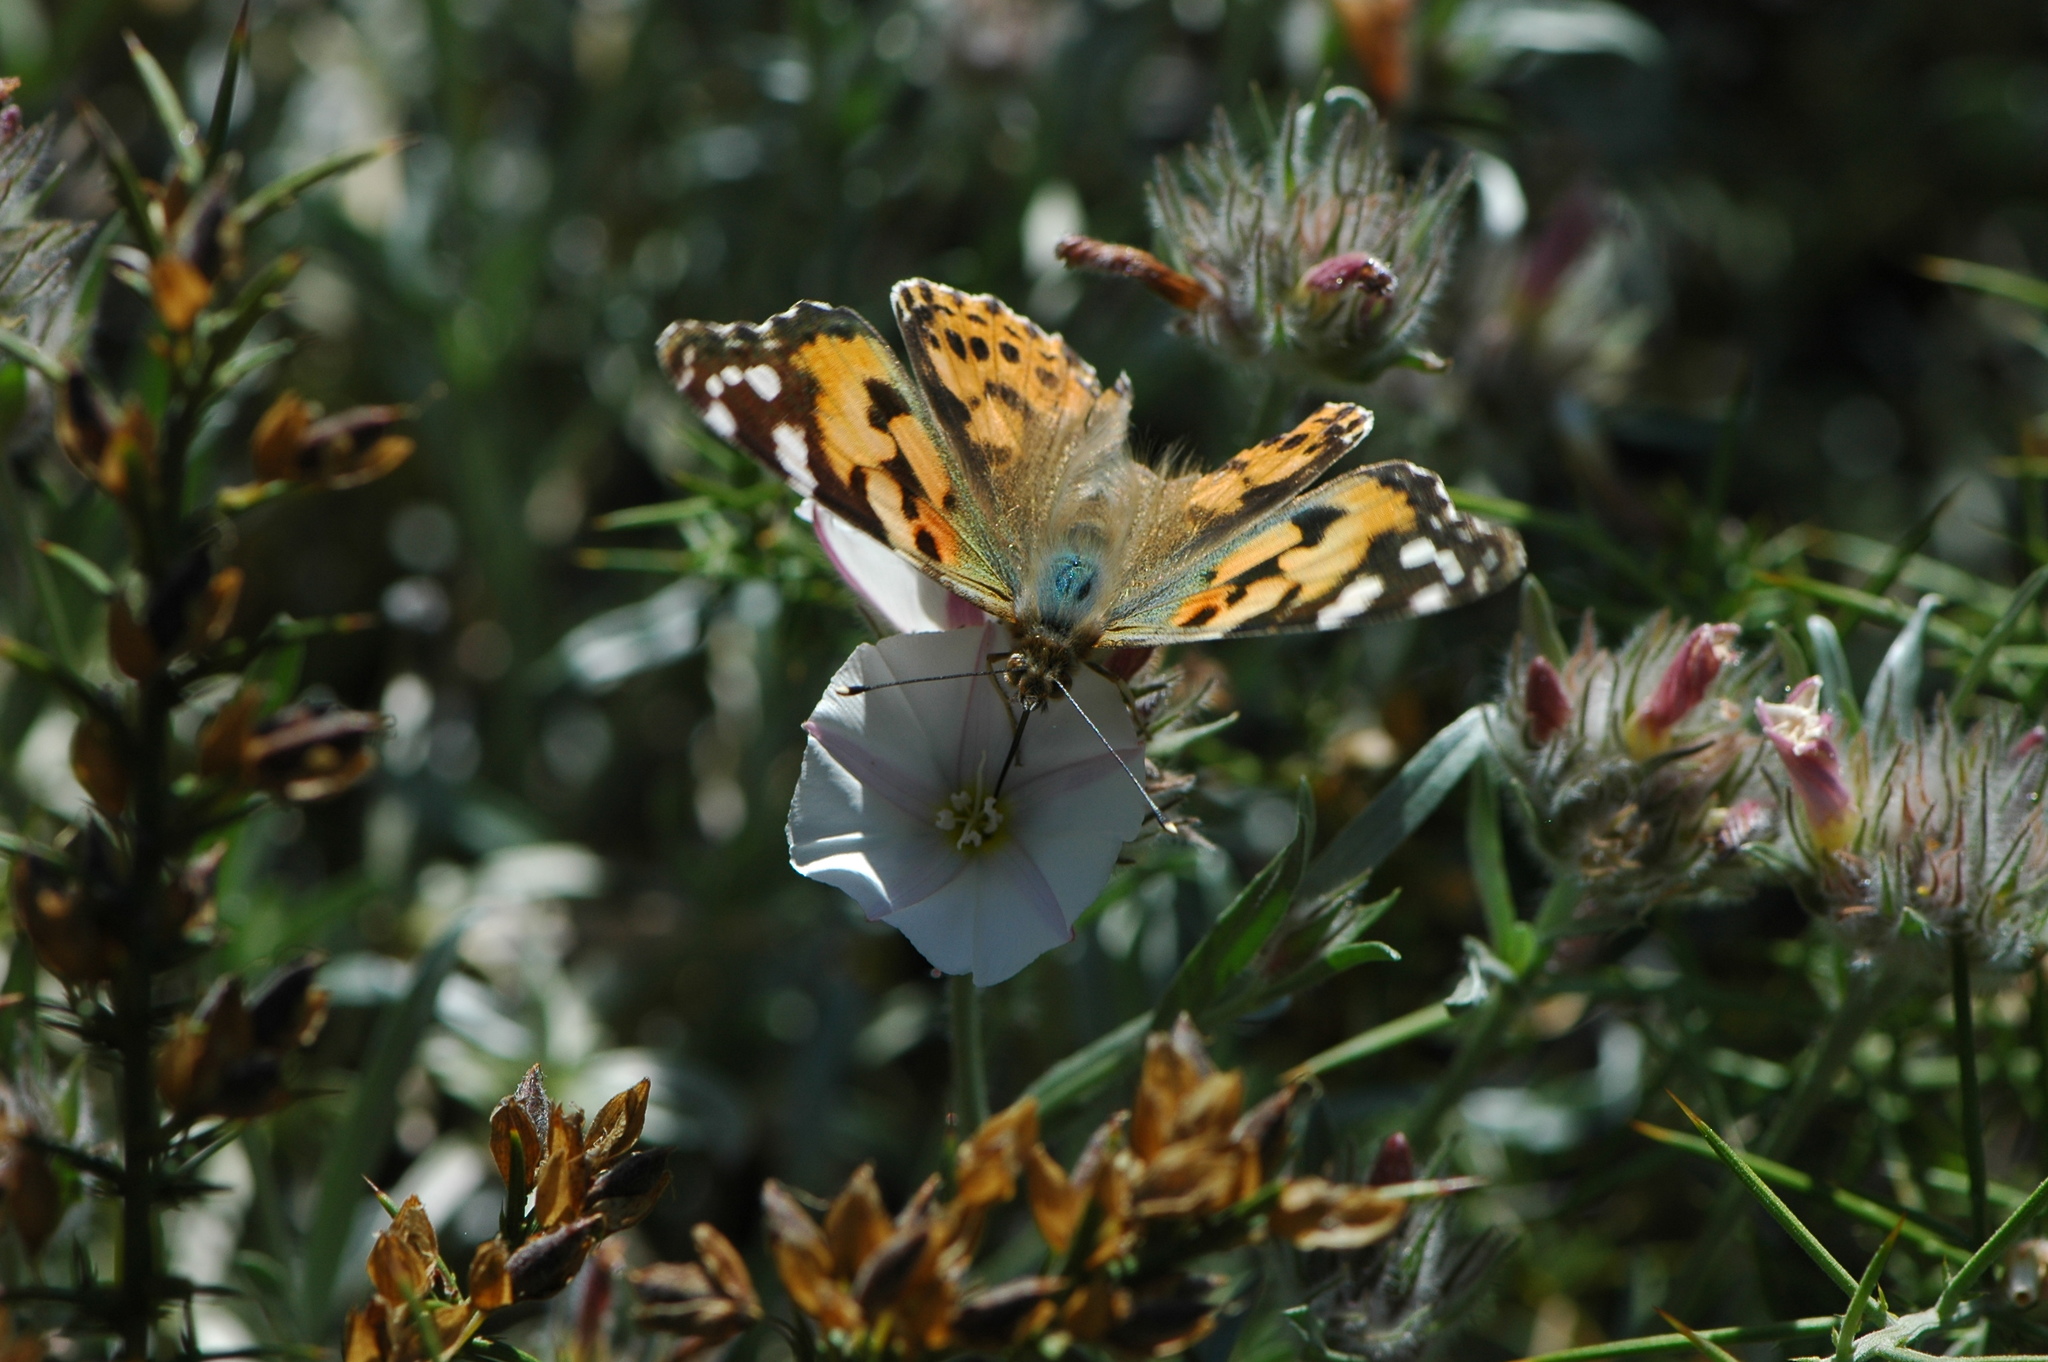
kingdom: Animalia
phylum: Arthropoda
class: Insecta
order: Lepidoptera
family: Nymphalidae
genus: Vanessa
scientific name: Vanessa cardui
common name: Painted lady
